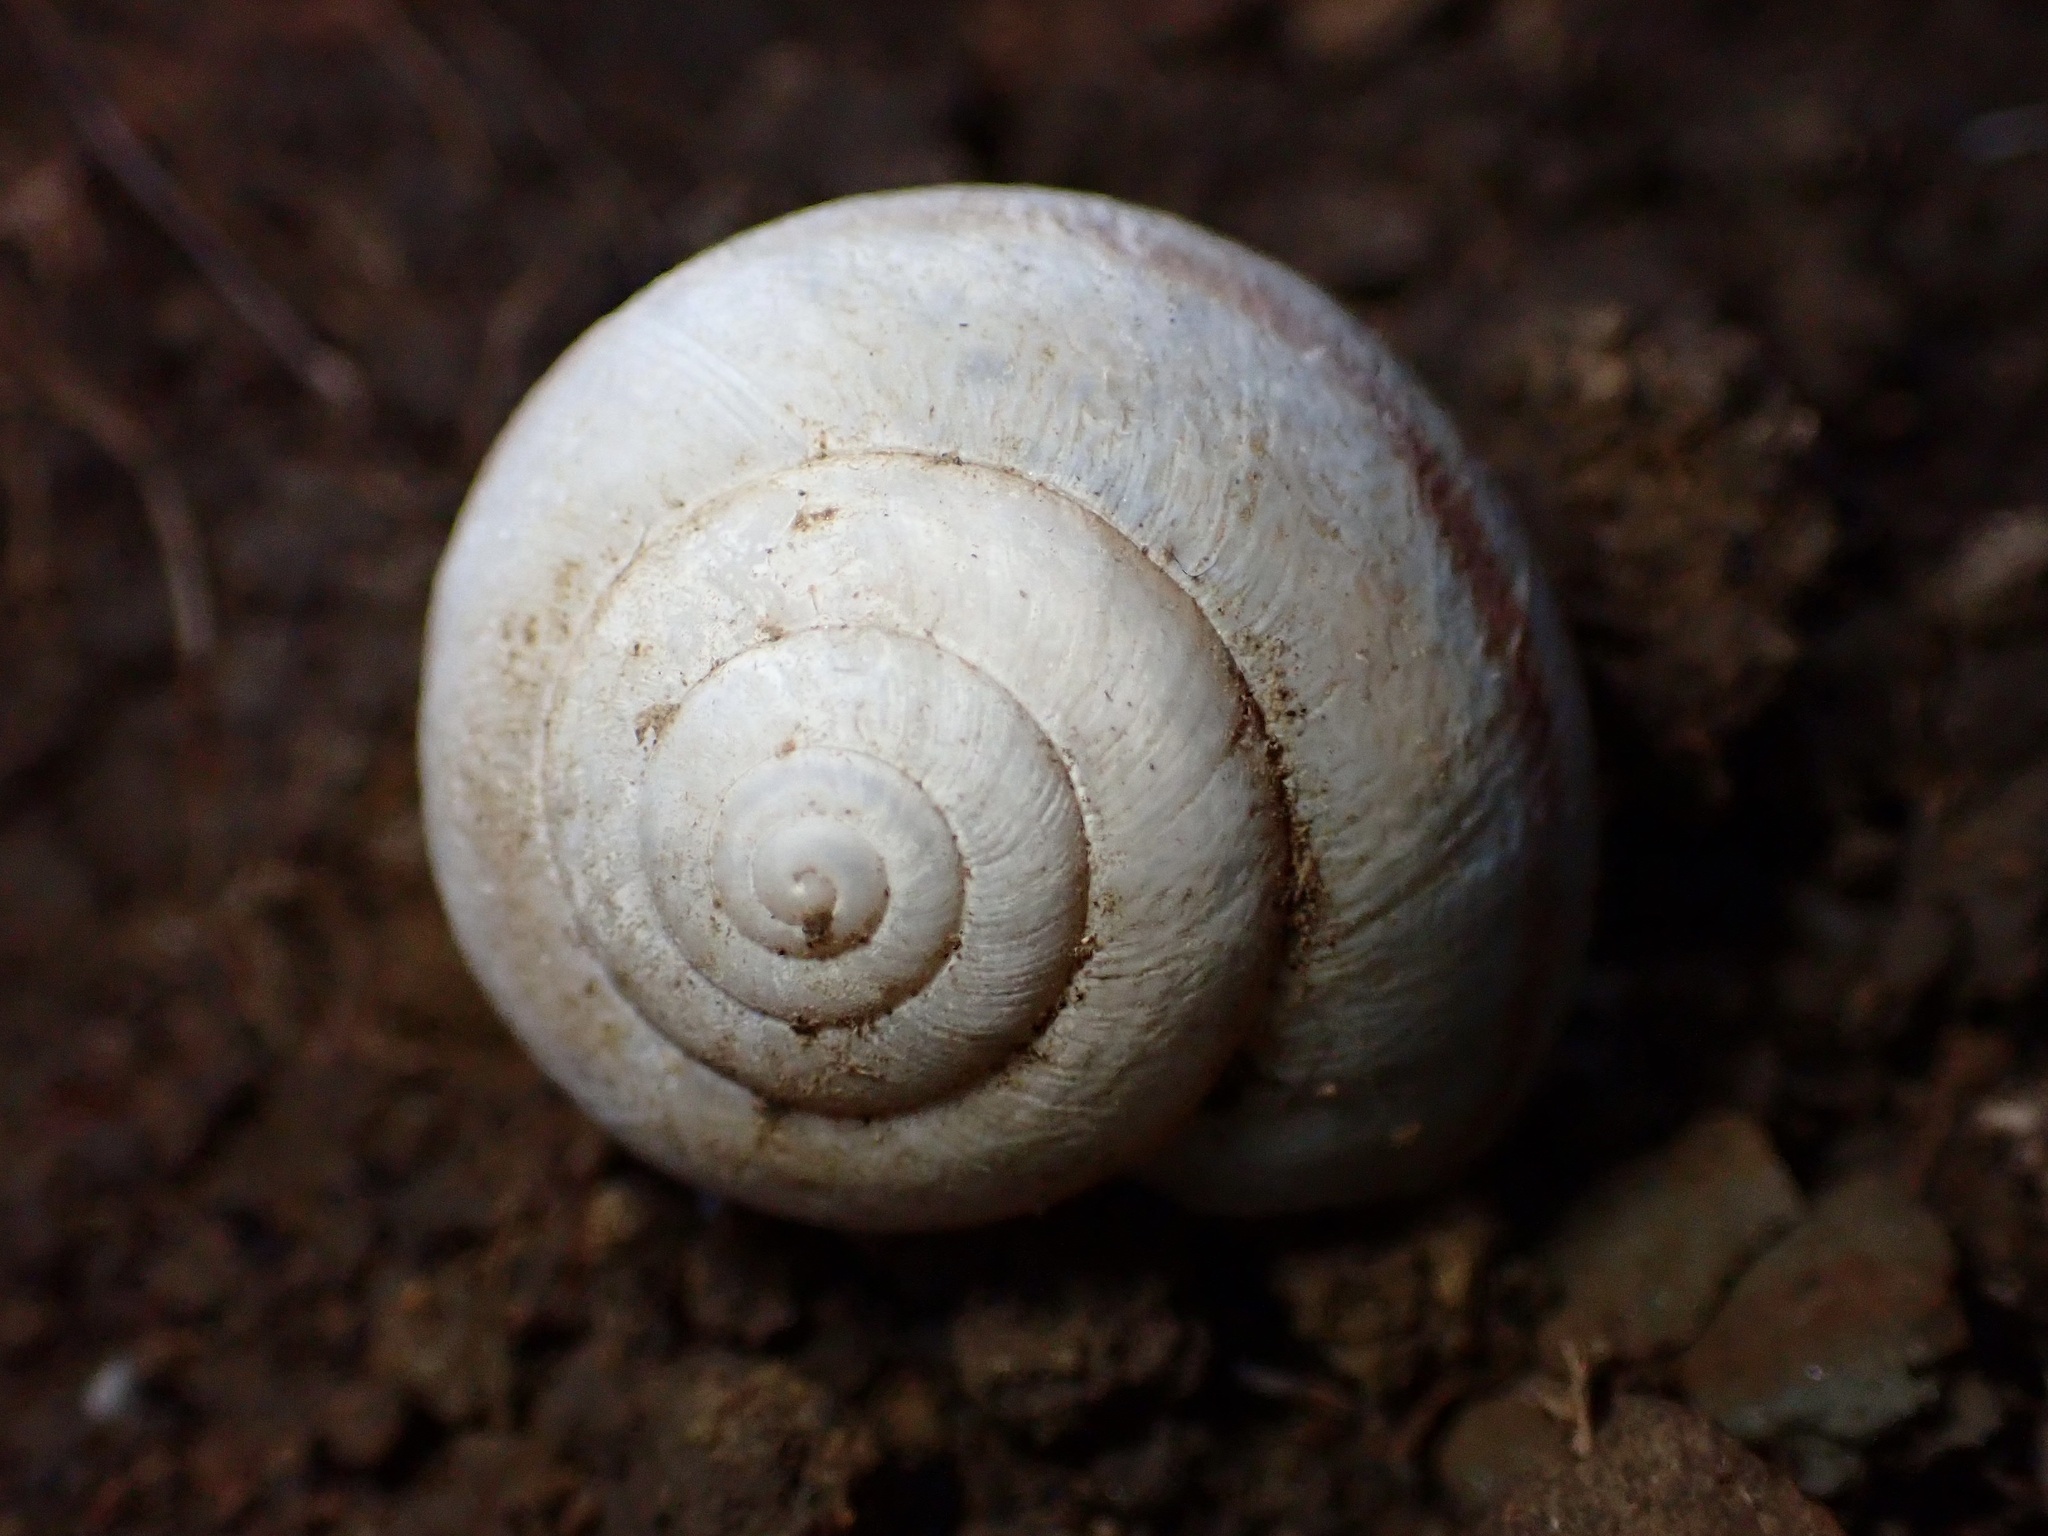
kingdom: Animalia
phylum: Mollusca
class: Gastropoda
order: Stylommatophora
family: Xanthonychidae
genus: Helminthoglypta
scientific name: Helminthoglypta tudiculata
